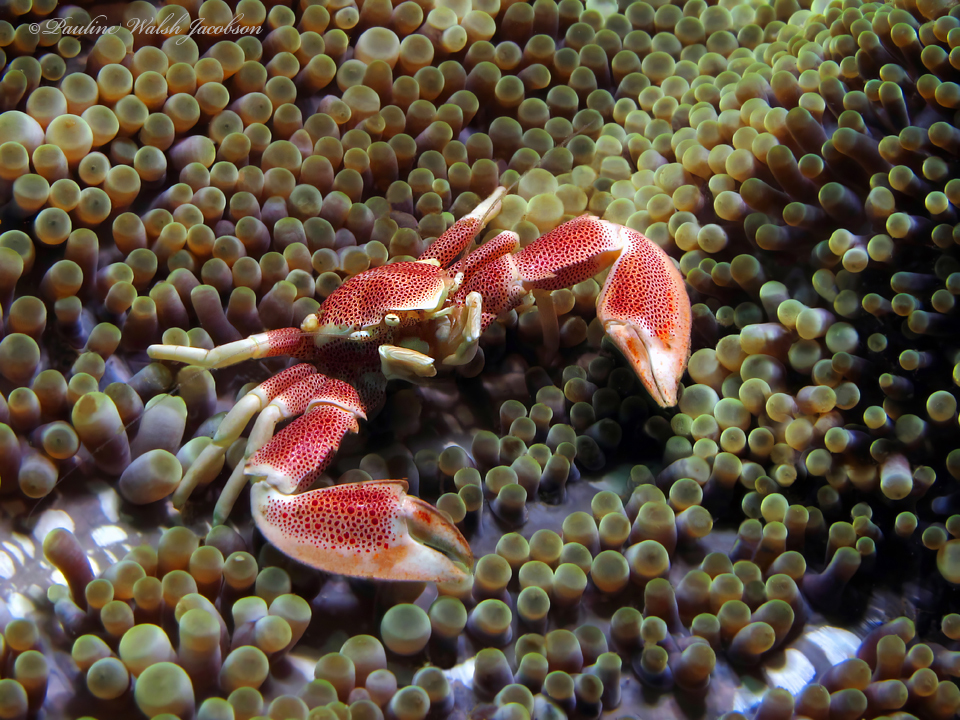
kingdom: Animalia
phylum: Arthropoda
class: Malacostraca
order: Decapoda
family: Porcellanidae
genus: Neopetrolisthes
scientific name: Neopetrolisthes maculatus
